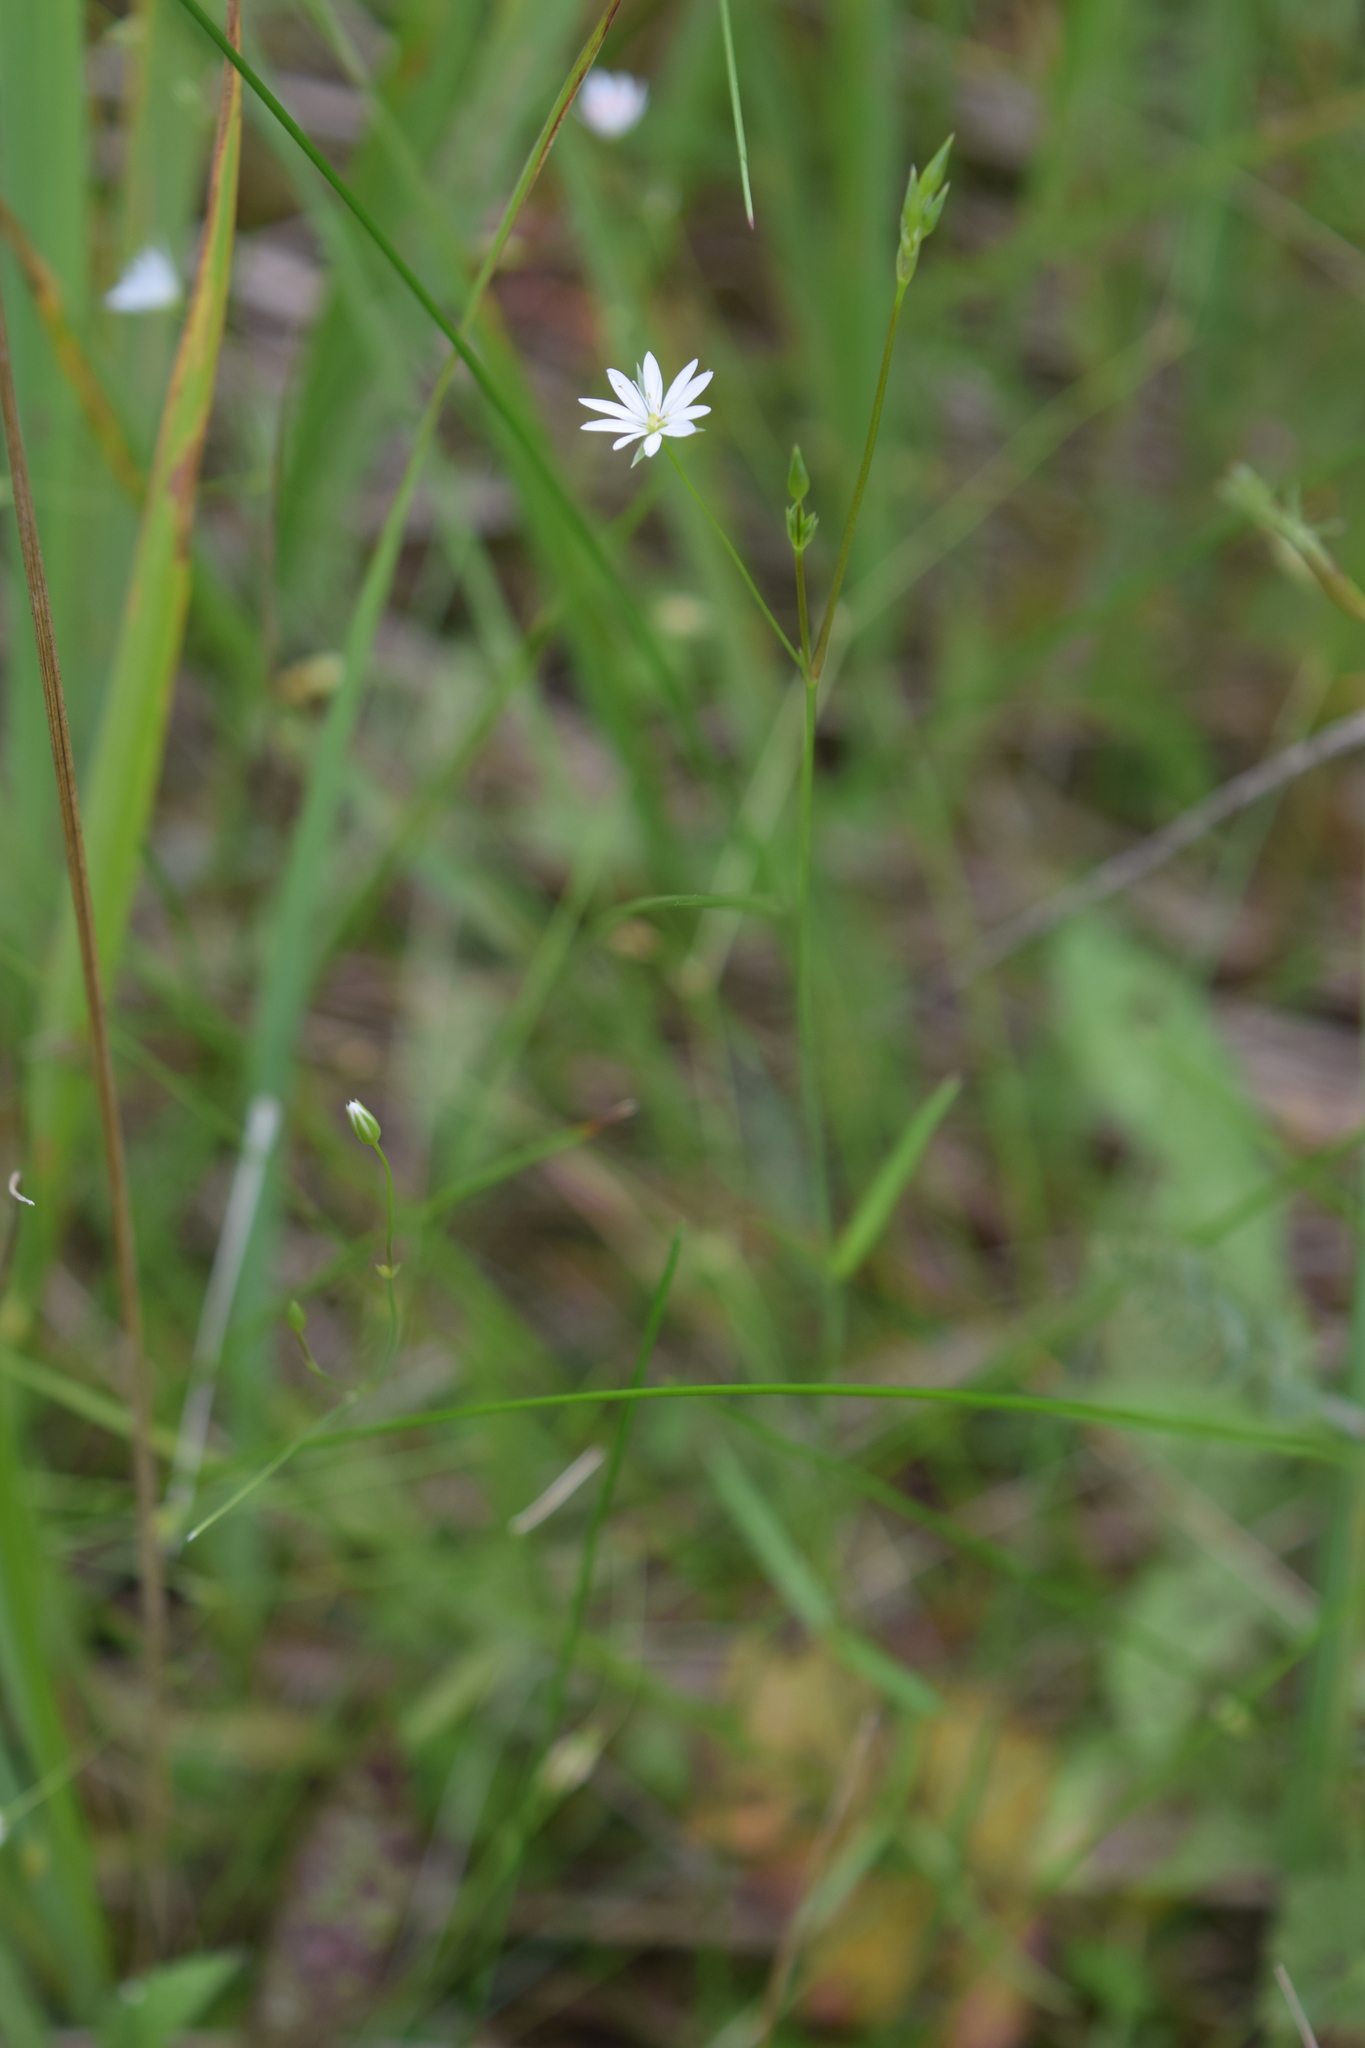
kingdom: Plantae
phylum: Tracheophyta
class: Magnoliopsida
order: Caryophyllales
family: Caryophyllaceae
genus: Stellaria
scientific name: Stellaria graminea
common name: Grass-like starwort
